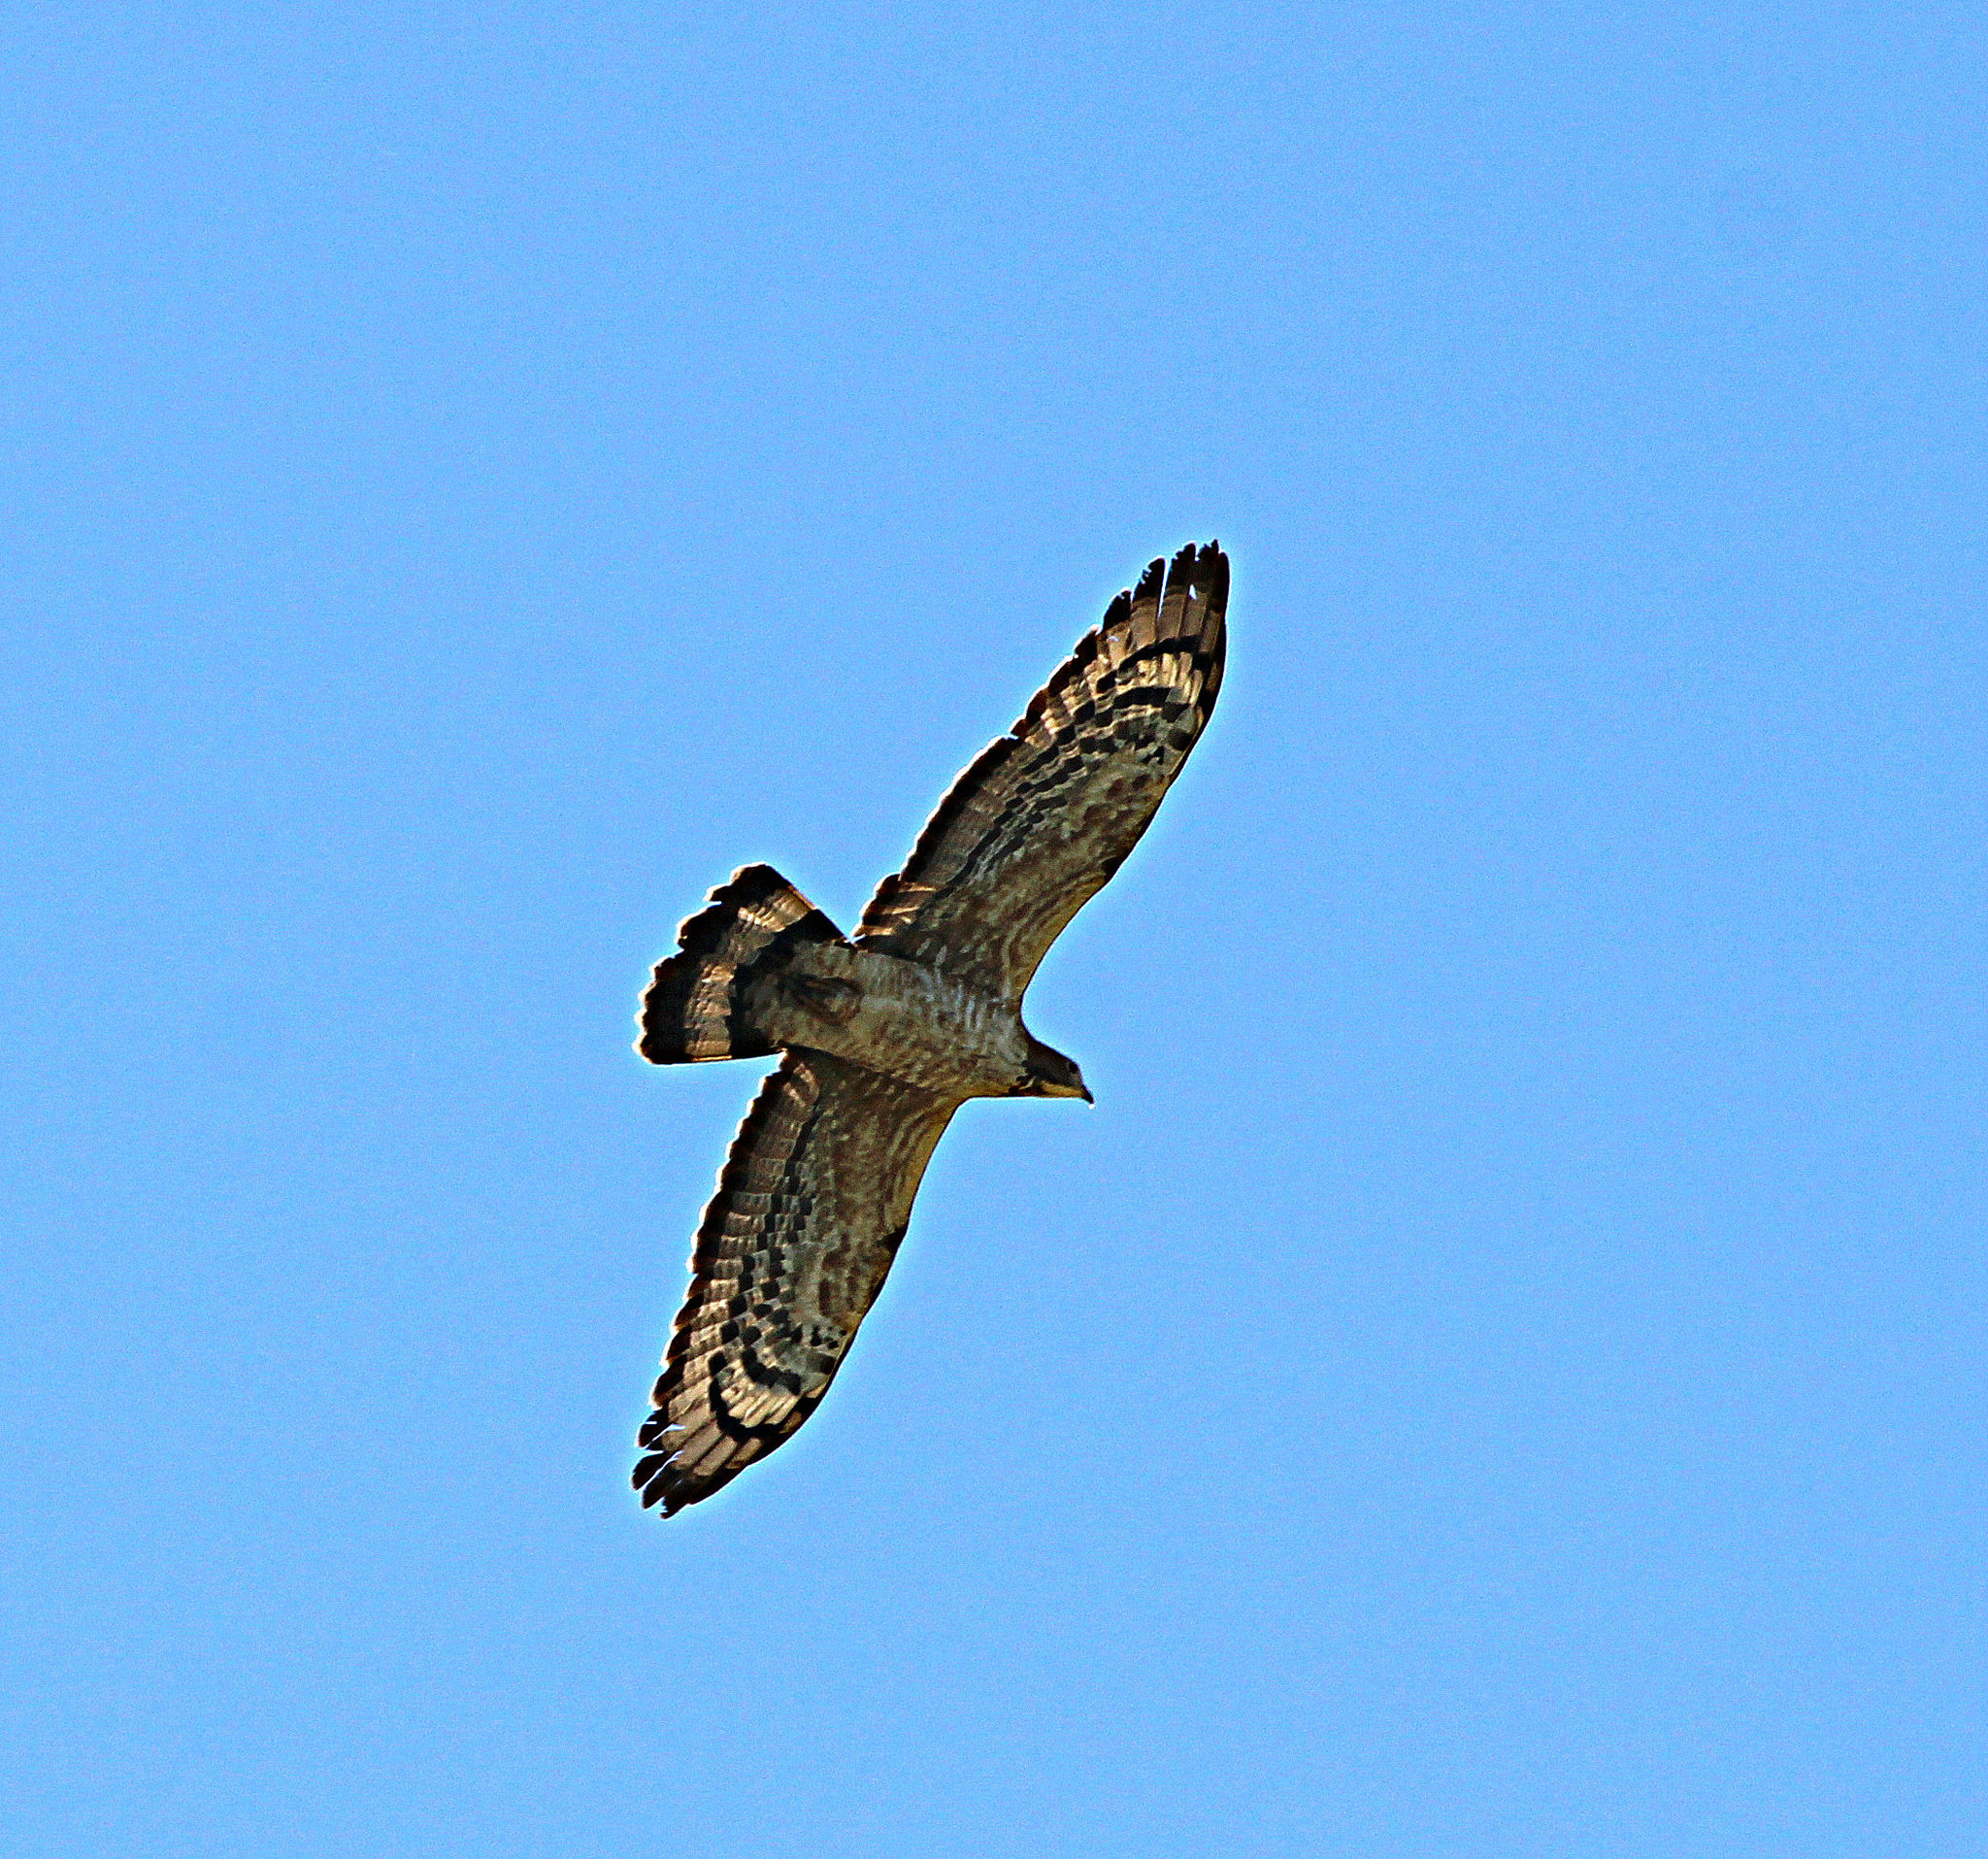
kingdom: Animalia
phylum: Chordata
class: Aves
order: Accipitriformes
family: Accipitridae
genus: Pernis
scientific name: Pernis ptilorhynchus
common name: Crested honey buzzard
